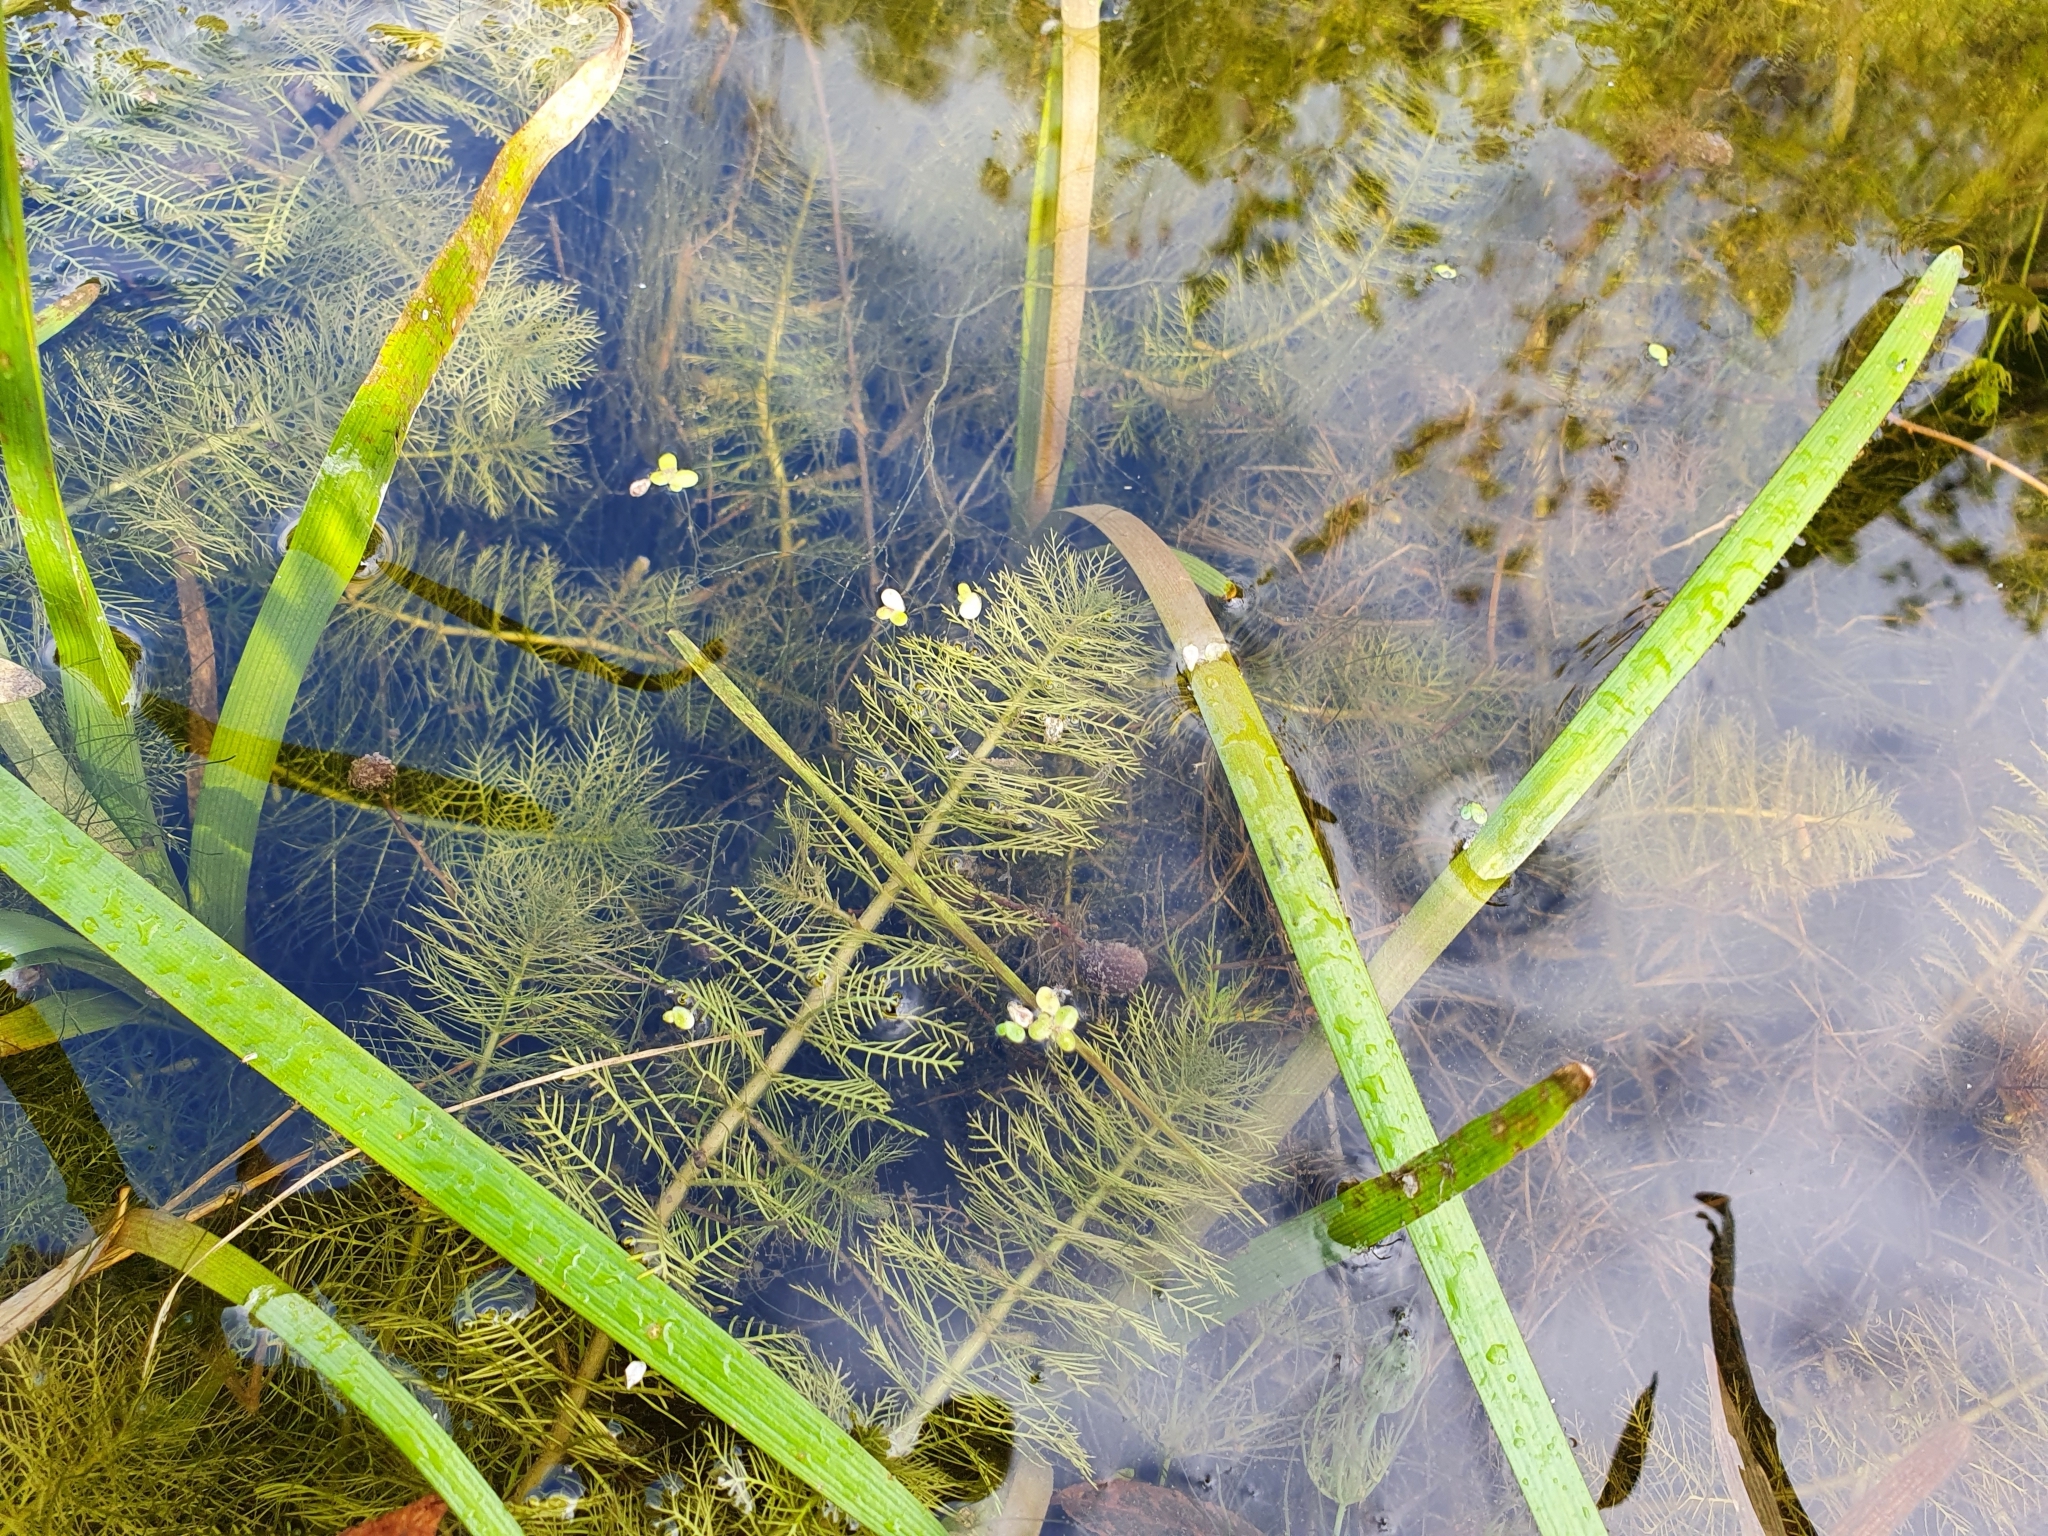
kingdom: Plantae
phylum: Tracheophyta
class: Magnoliopsida
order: Saxifragales
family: Haloragaceae
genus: Myriophyllum
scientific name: Myriophyllum verticillatum
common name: Whorled water-milfoil
